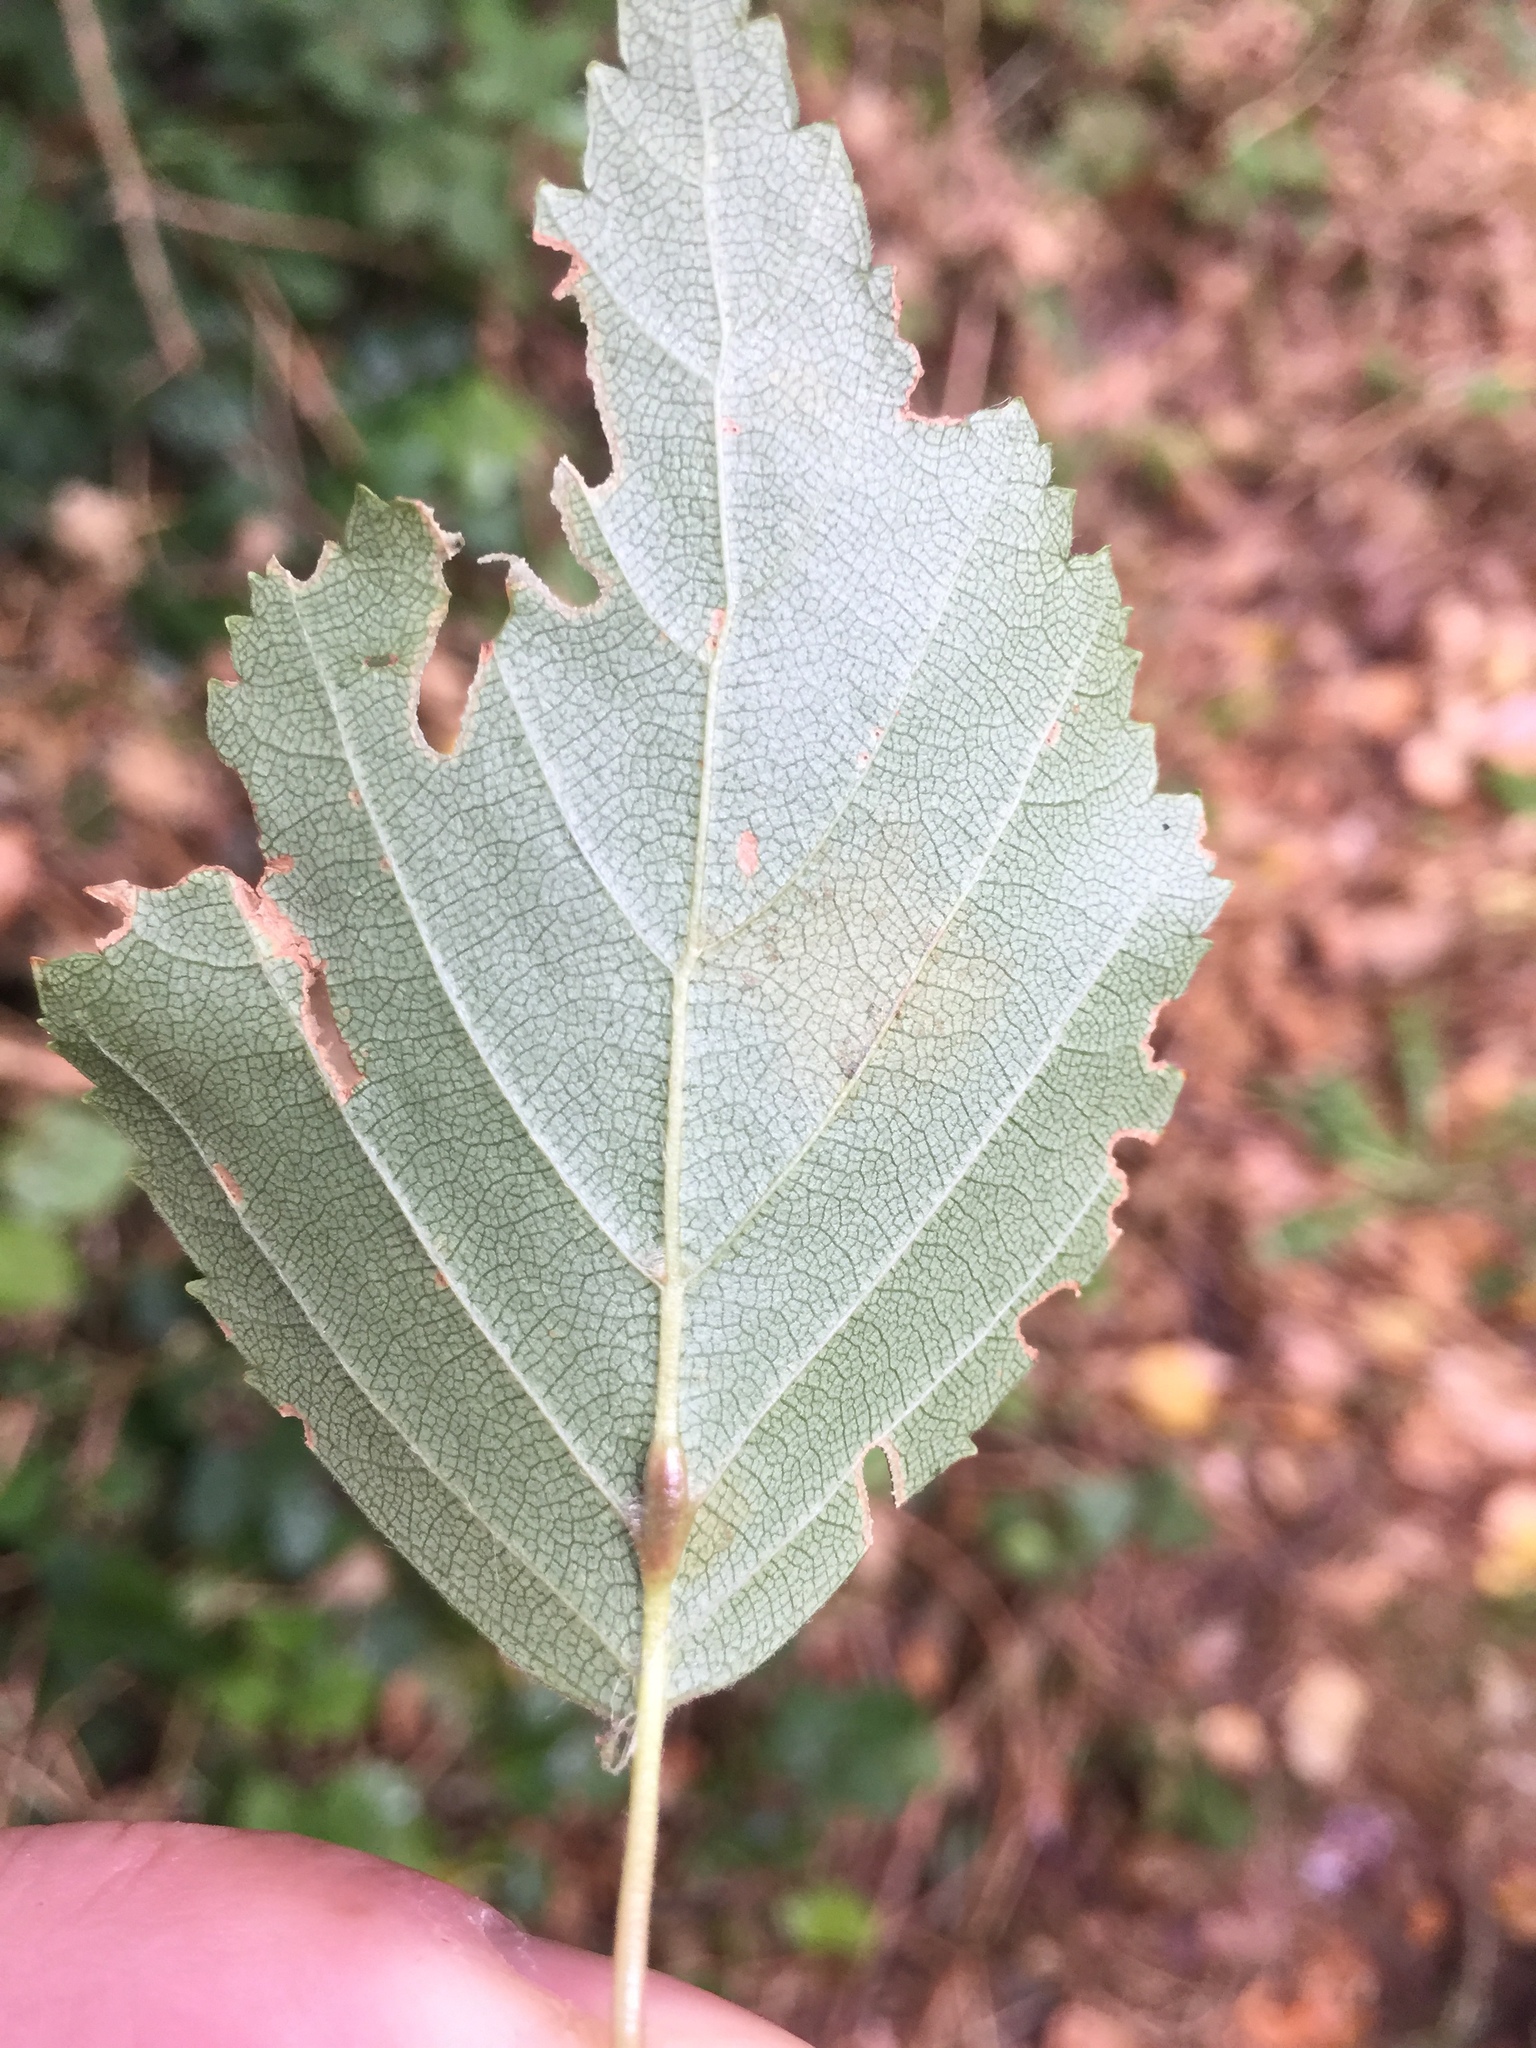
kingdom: Animalia
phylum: Arthropoda
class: Insecta
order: Diptera
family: Cecidomyiidae
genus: Massalongia
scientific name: Massalongia rubra
